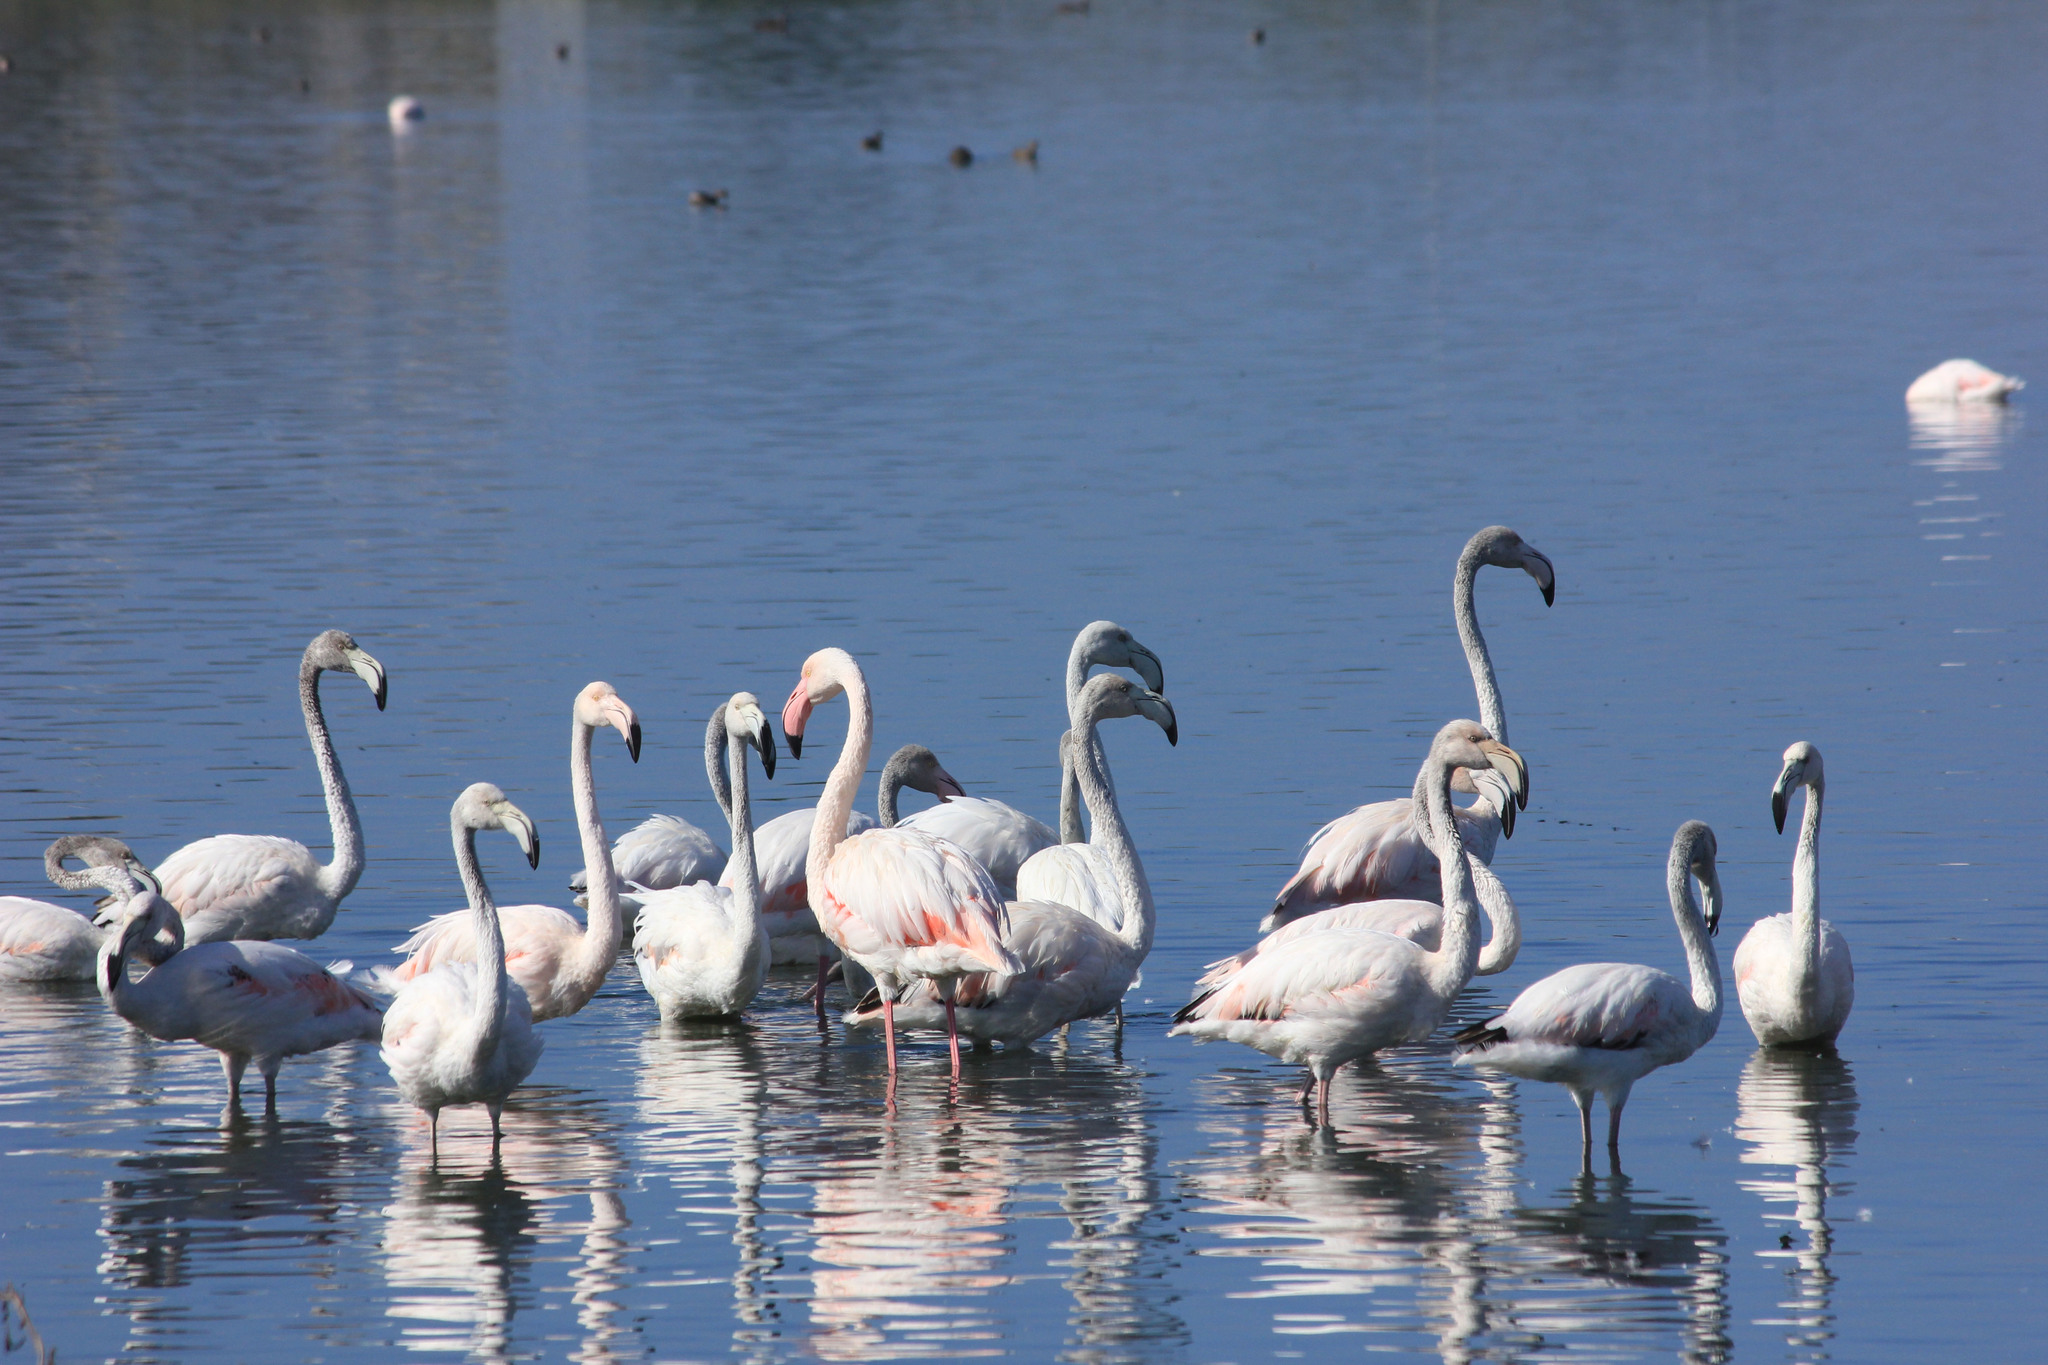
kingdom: Animalia
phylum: Chordata
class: Aves
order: Phoenicopteriformes
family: Phoenicopteridae
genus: Phoenicopterus
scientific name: Phoenicopterus roseus
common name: Greater flamingo
